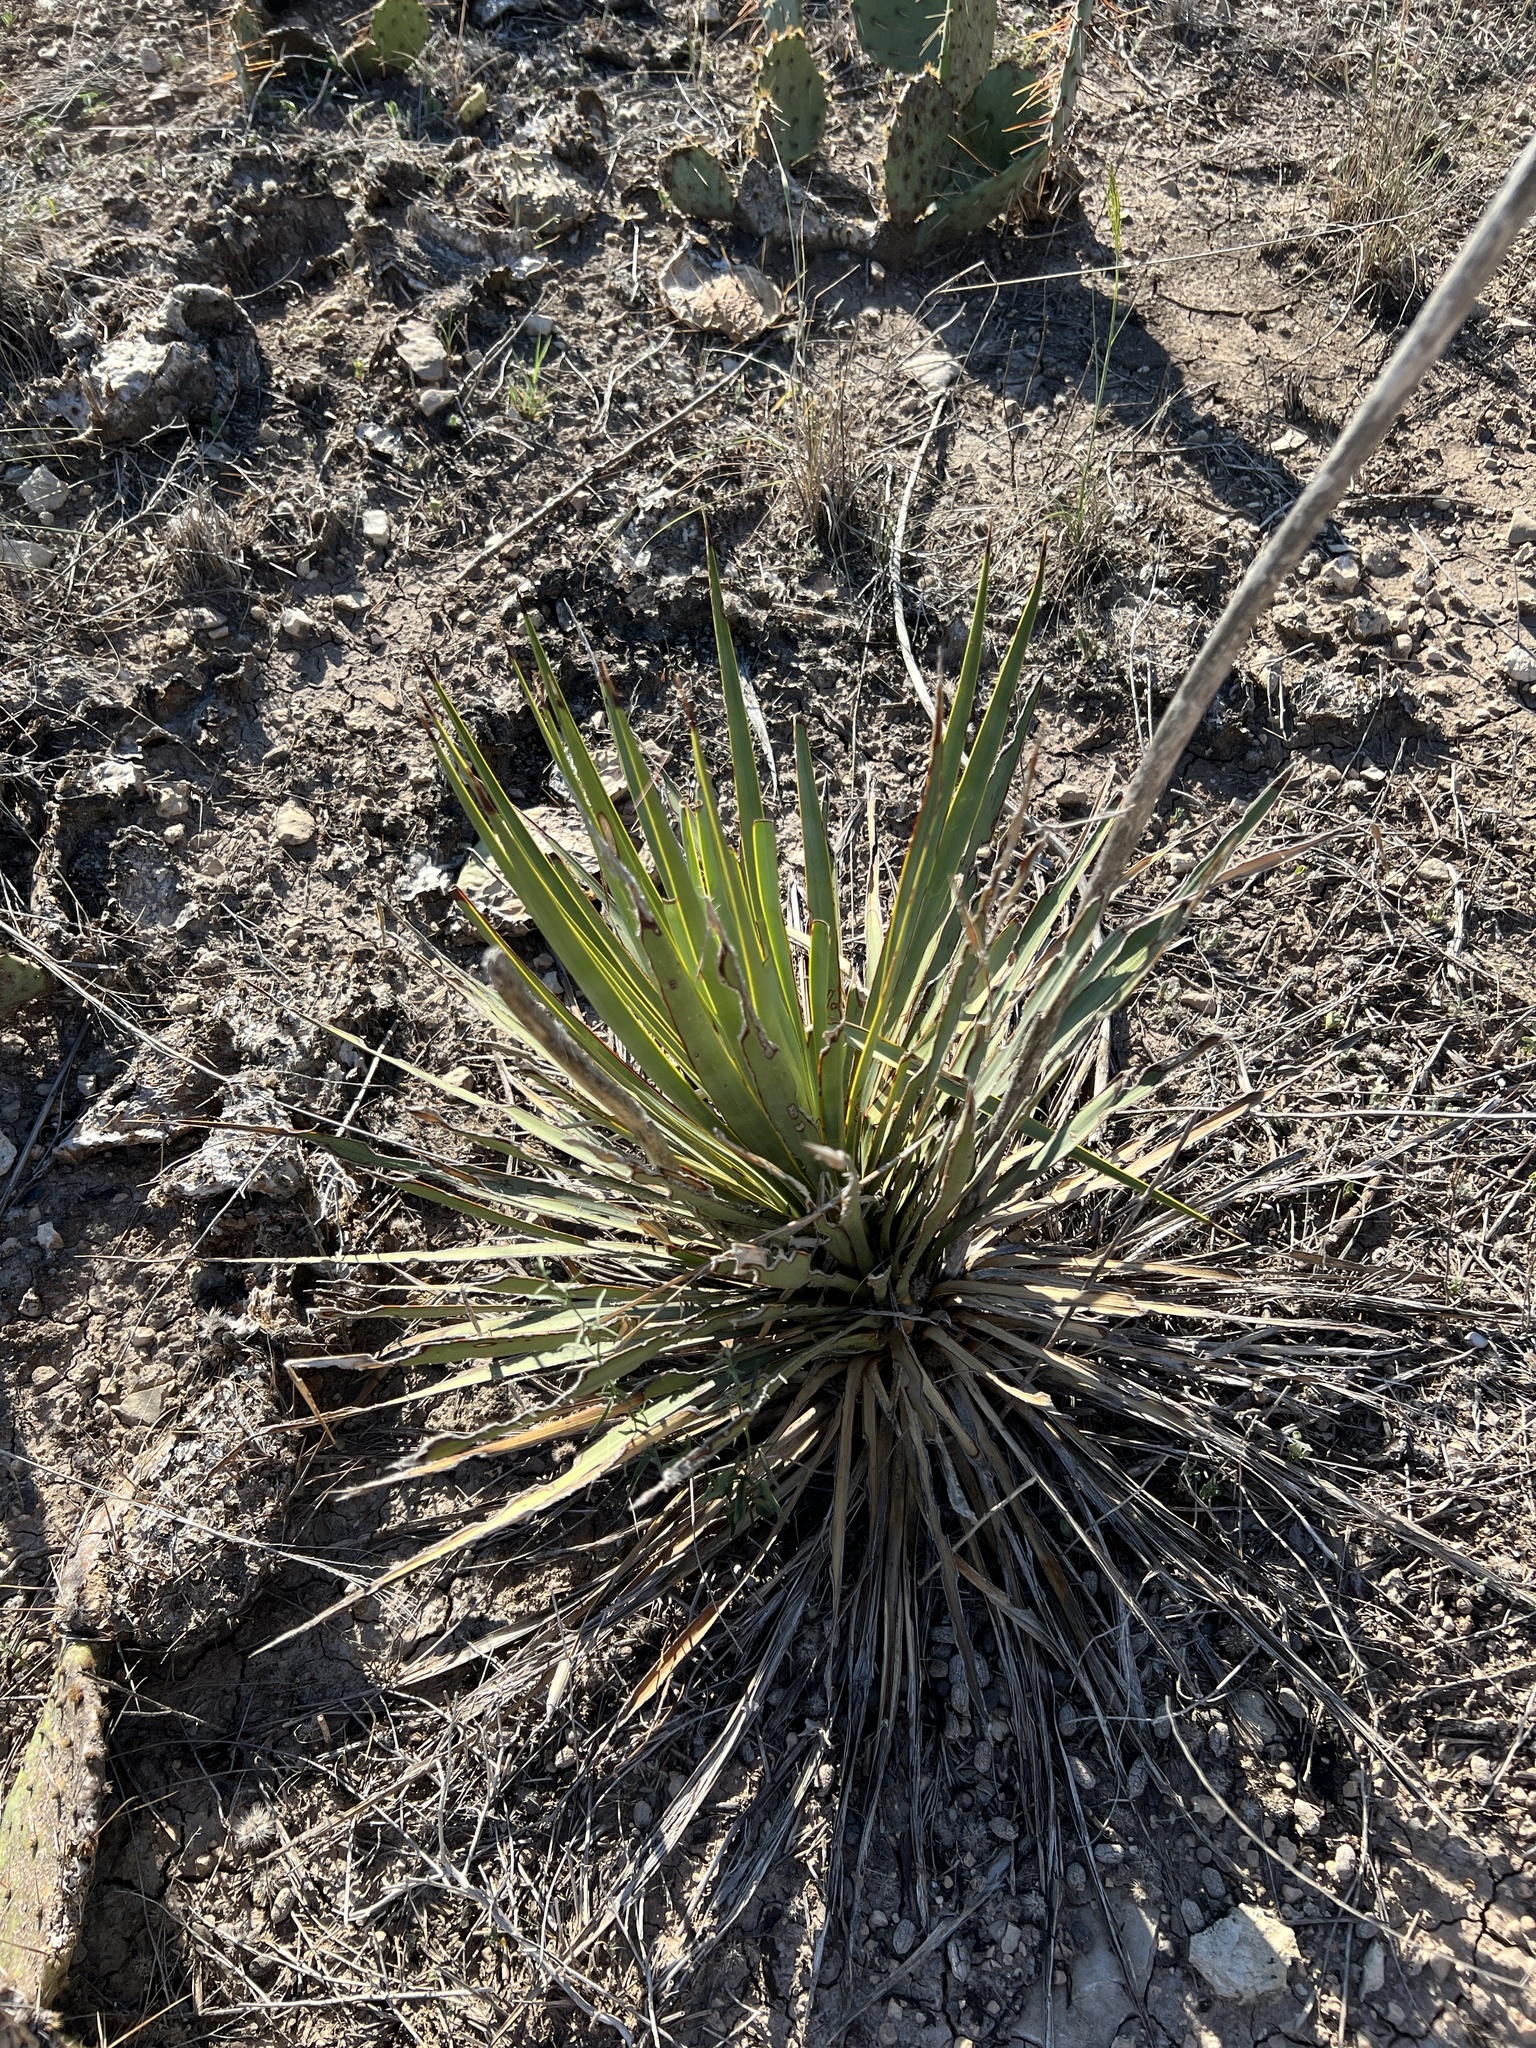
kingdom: Plantae
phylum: Tracheophyta
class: Liliopsida
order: Asparagales
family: Asparagaceae
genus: Yucca
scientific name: Yucca reverchonii
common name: San angelo yucca
